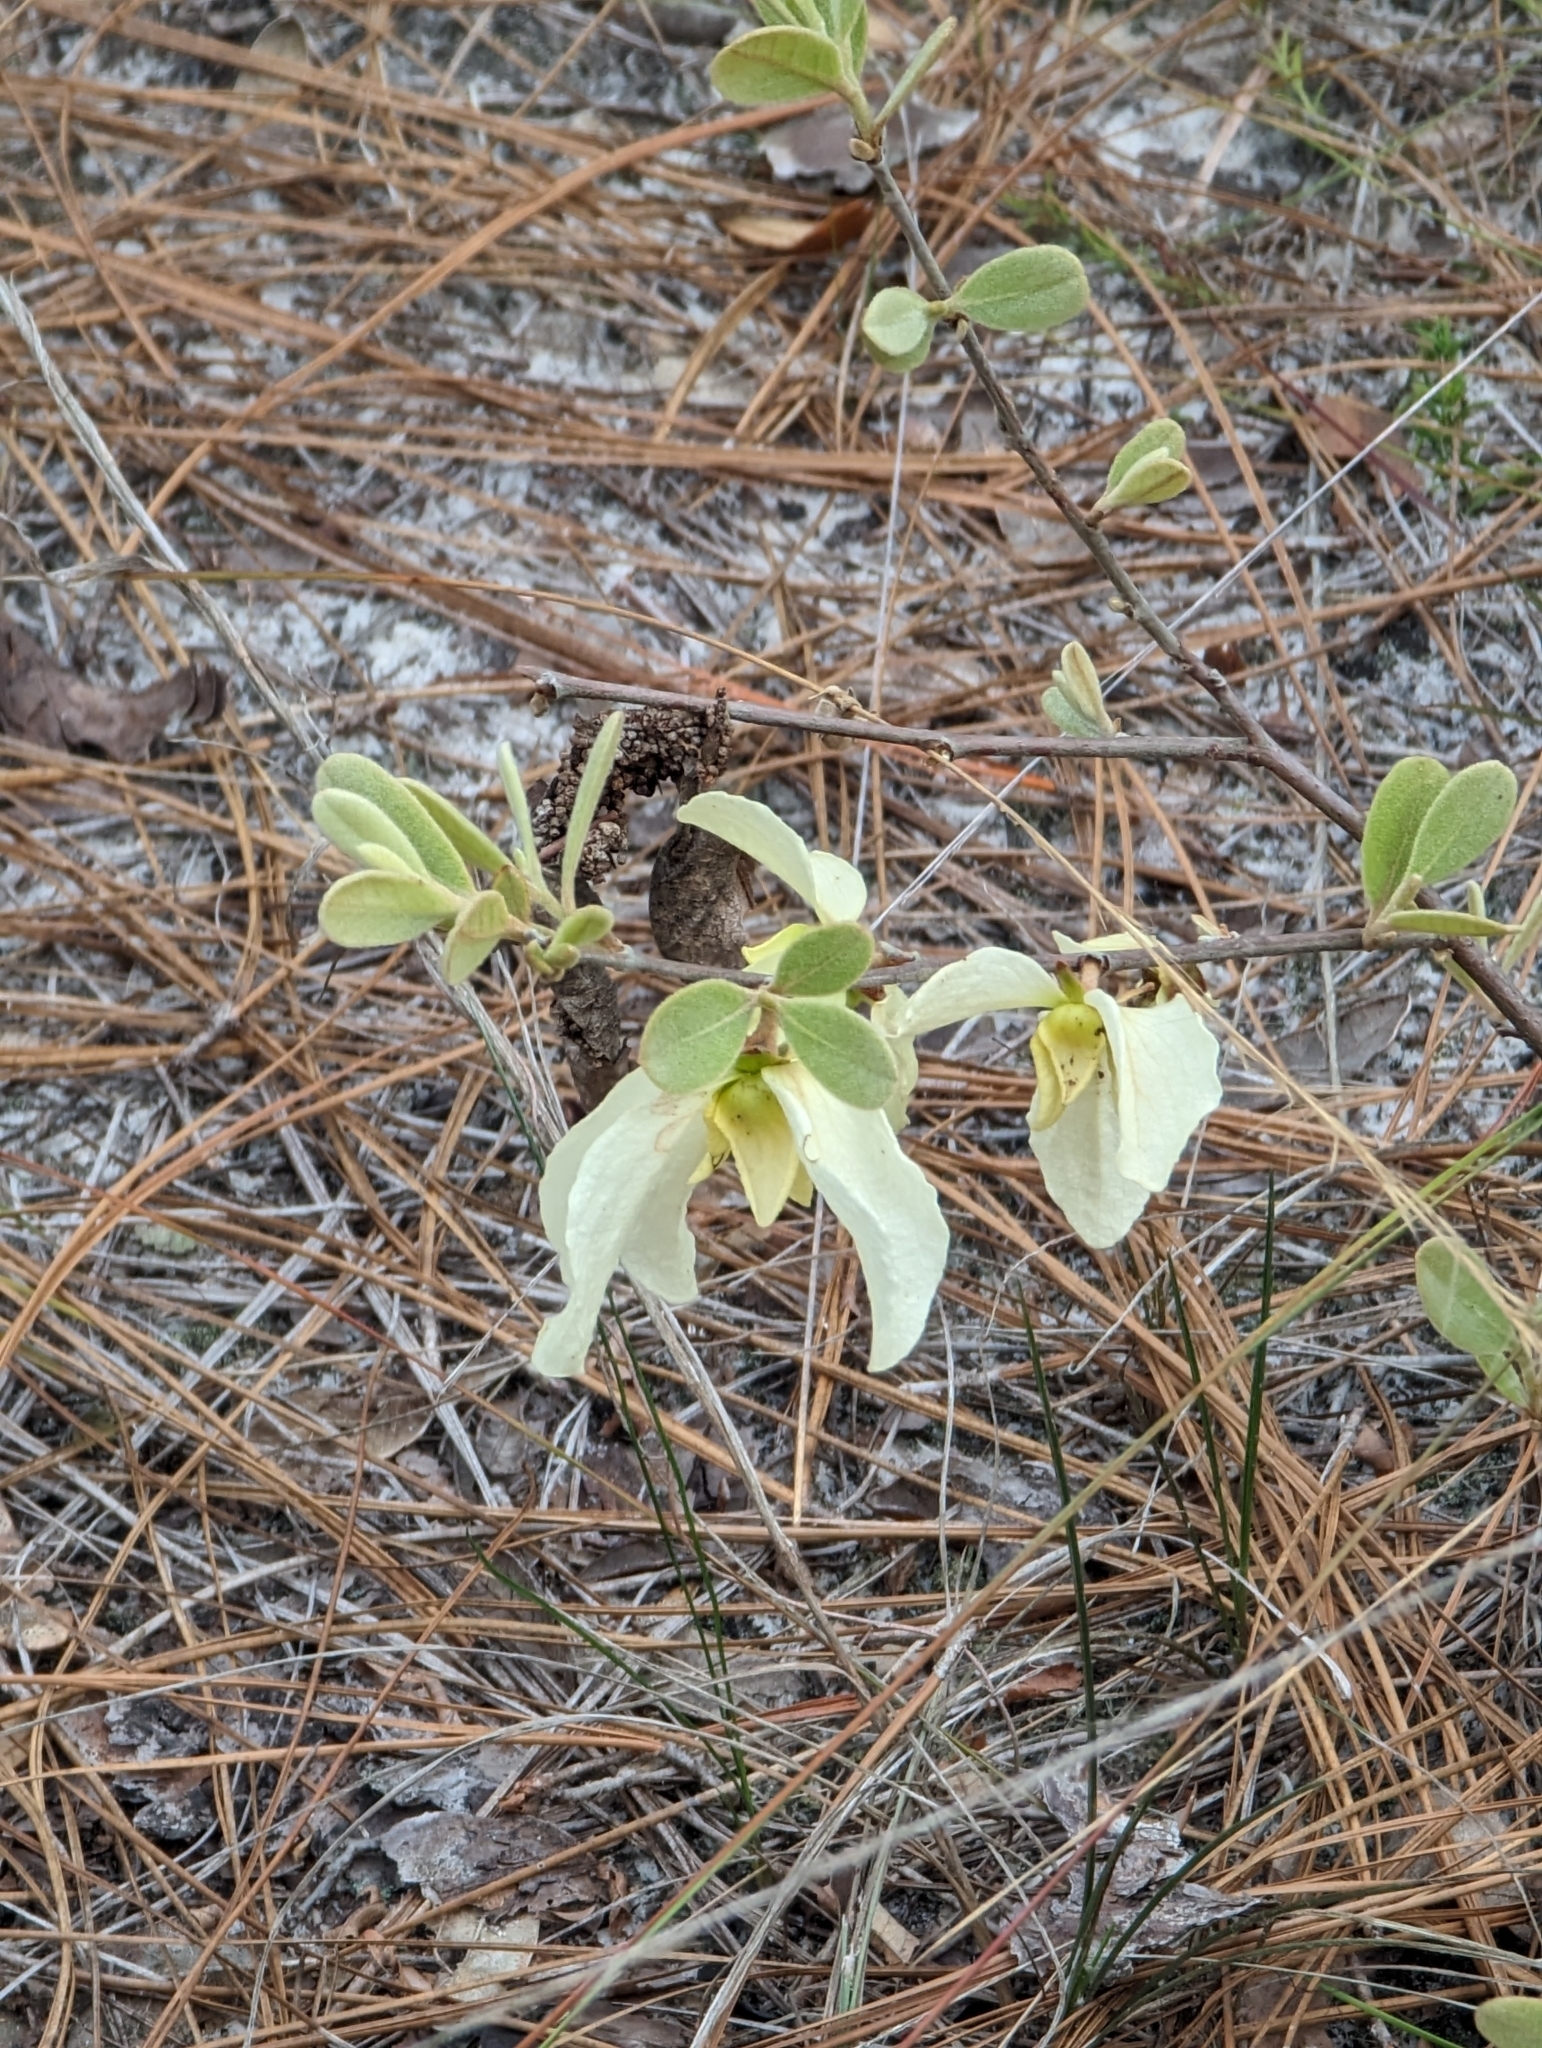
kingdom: Plantae
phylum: Tracheophyta
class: Magnoliopsida
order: Magnoliales
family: Annonaceae
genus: Asimina
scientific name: Asimina speciosa
